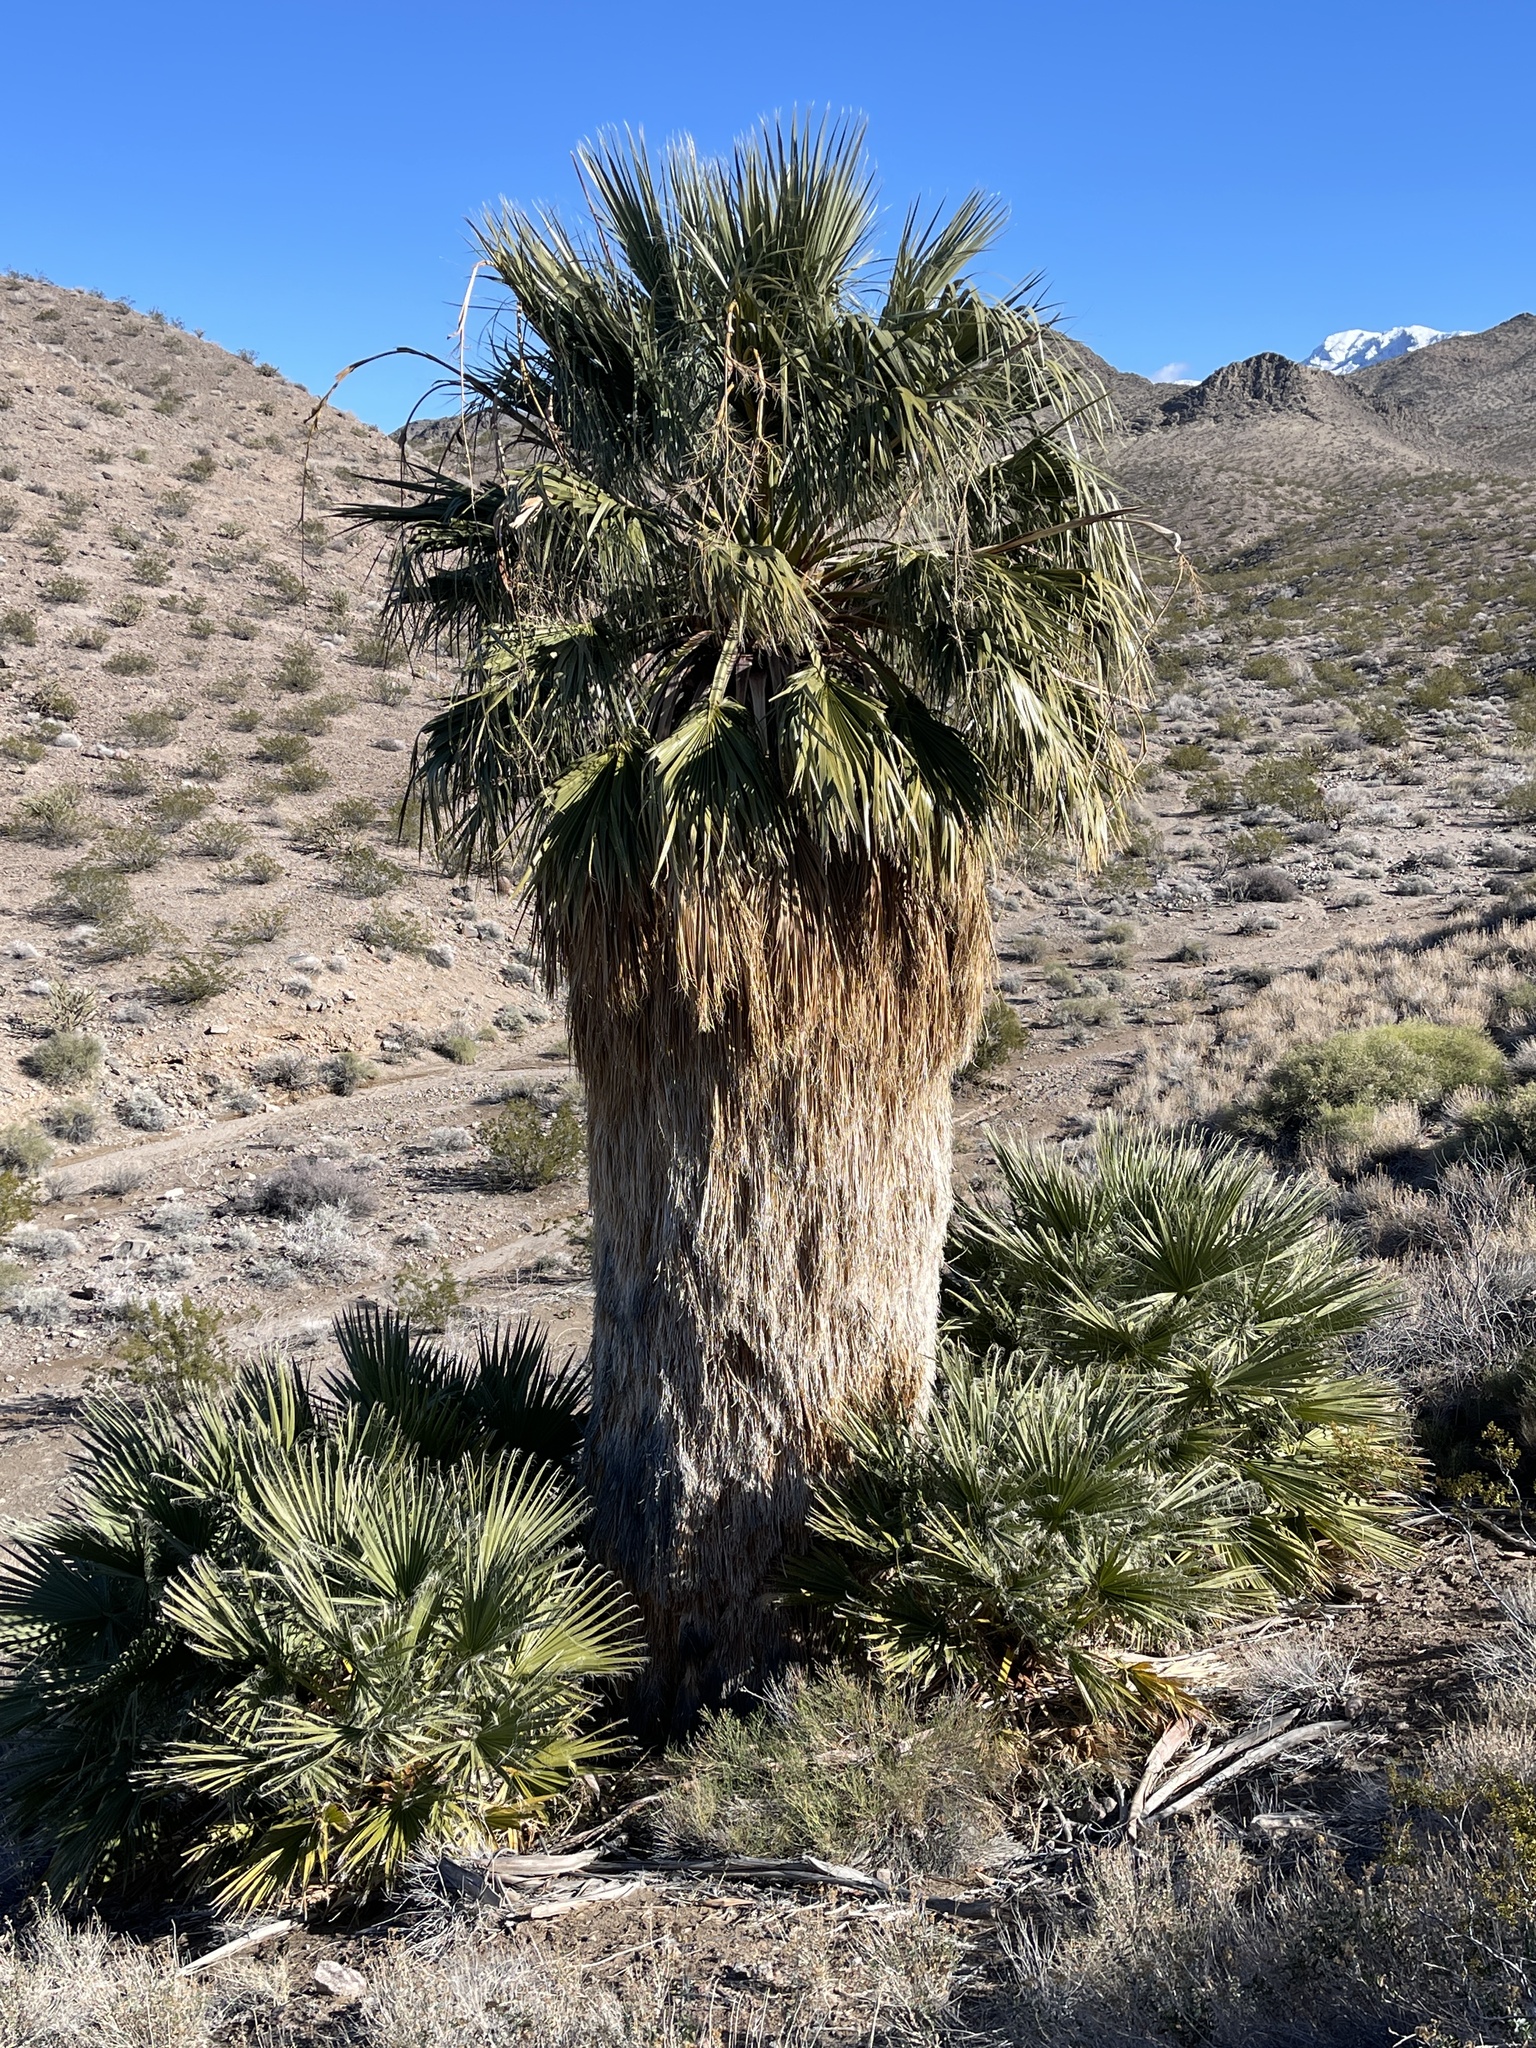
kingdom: Plantae
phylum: Tracheophyta
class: Liliopsida
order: Arecales
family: Arecaceae
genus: Washingtonia
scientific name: Washingtonia filifera
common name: California fan palm
